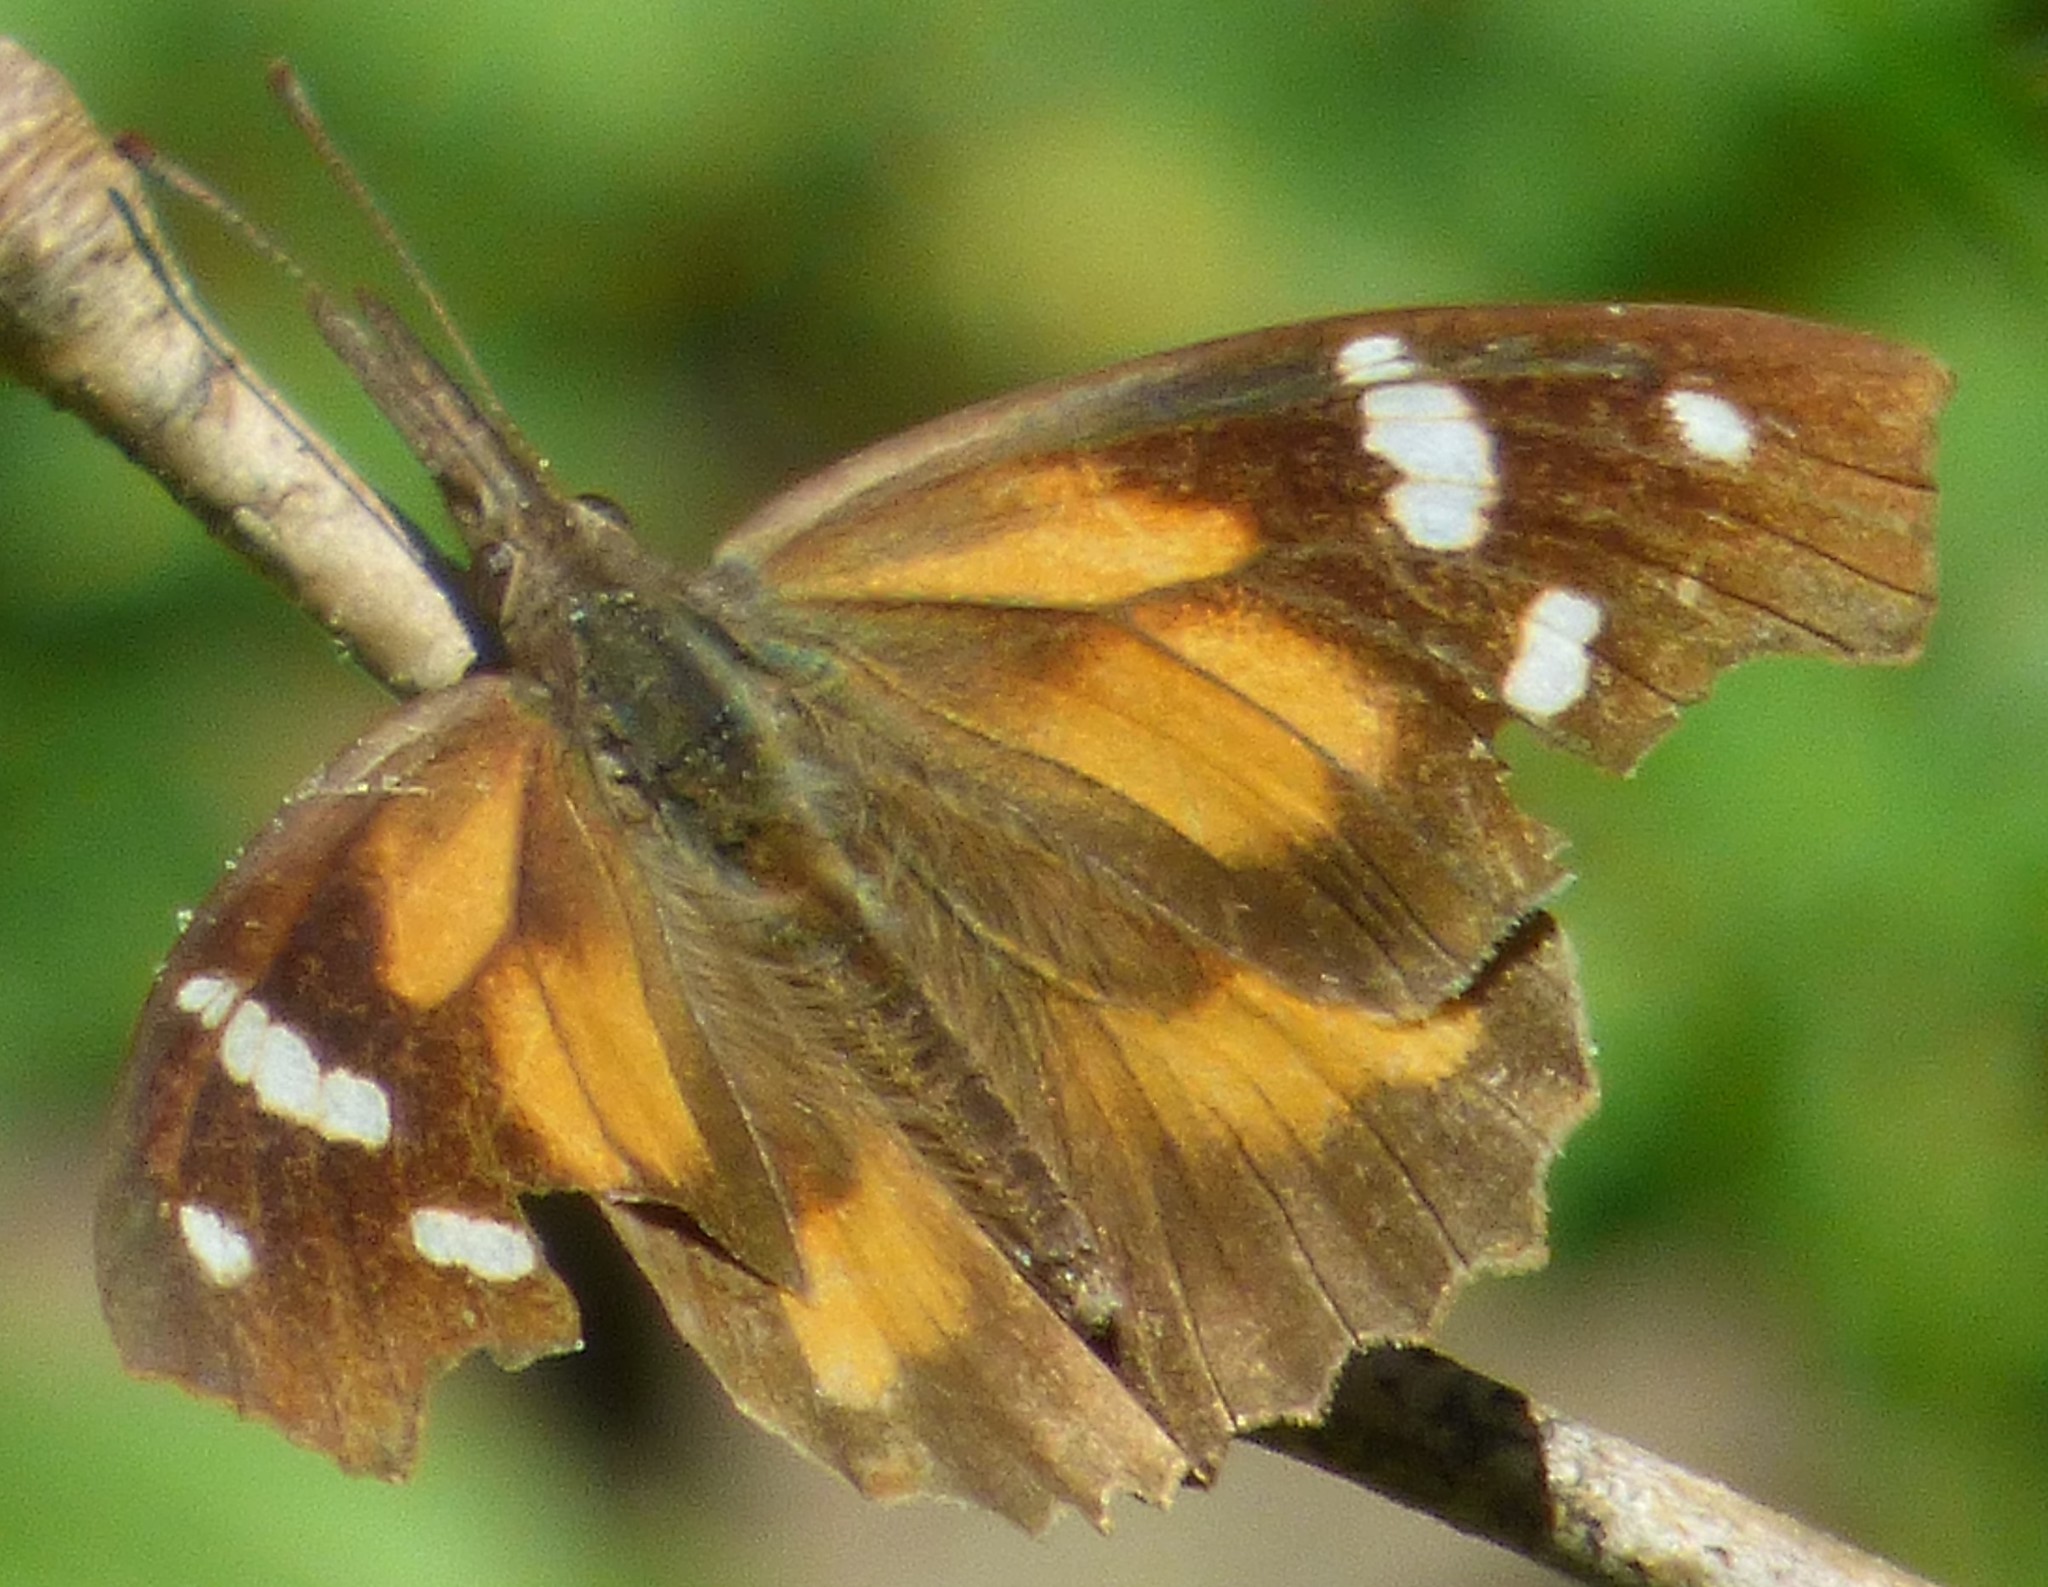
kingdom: Animalia
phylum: Arthropoda
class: Insecta
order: Lepidoptera
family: Nymphalidae
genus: Libytheana
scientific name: Libytheana carinenta
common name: American snout
